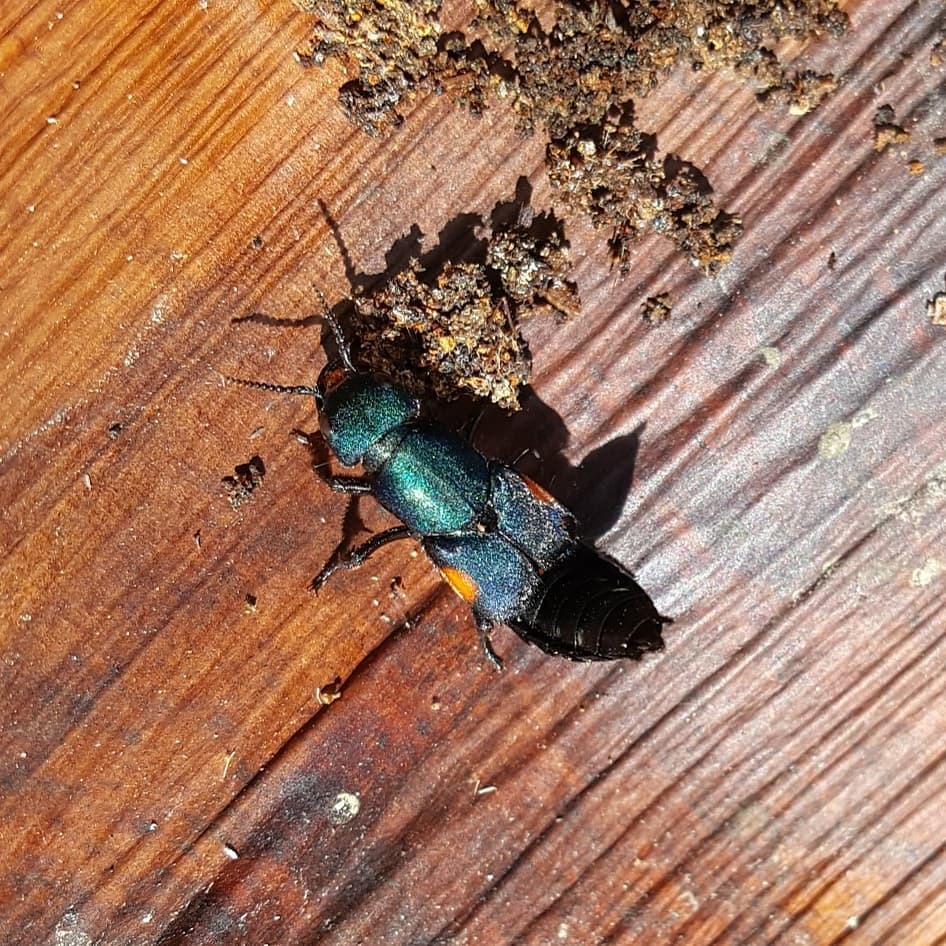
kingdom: Animalia
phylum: Arthropoda
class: Insecta
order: Coleoptera
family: Staphylinidae
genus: Platydracus
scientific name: Platydracus fulvomaculatus
